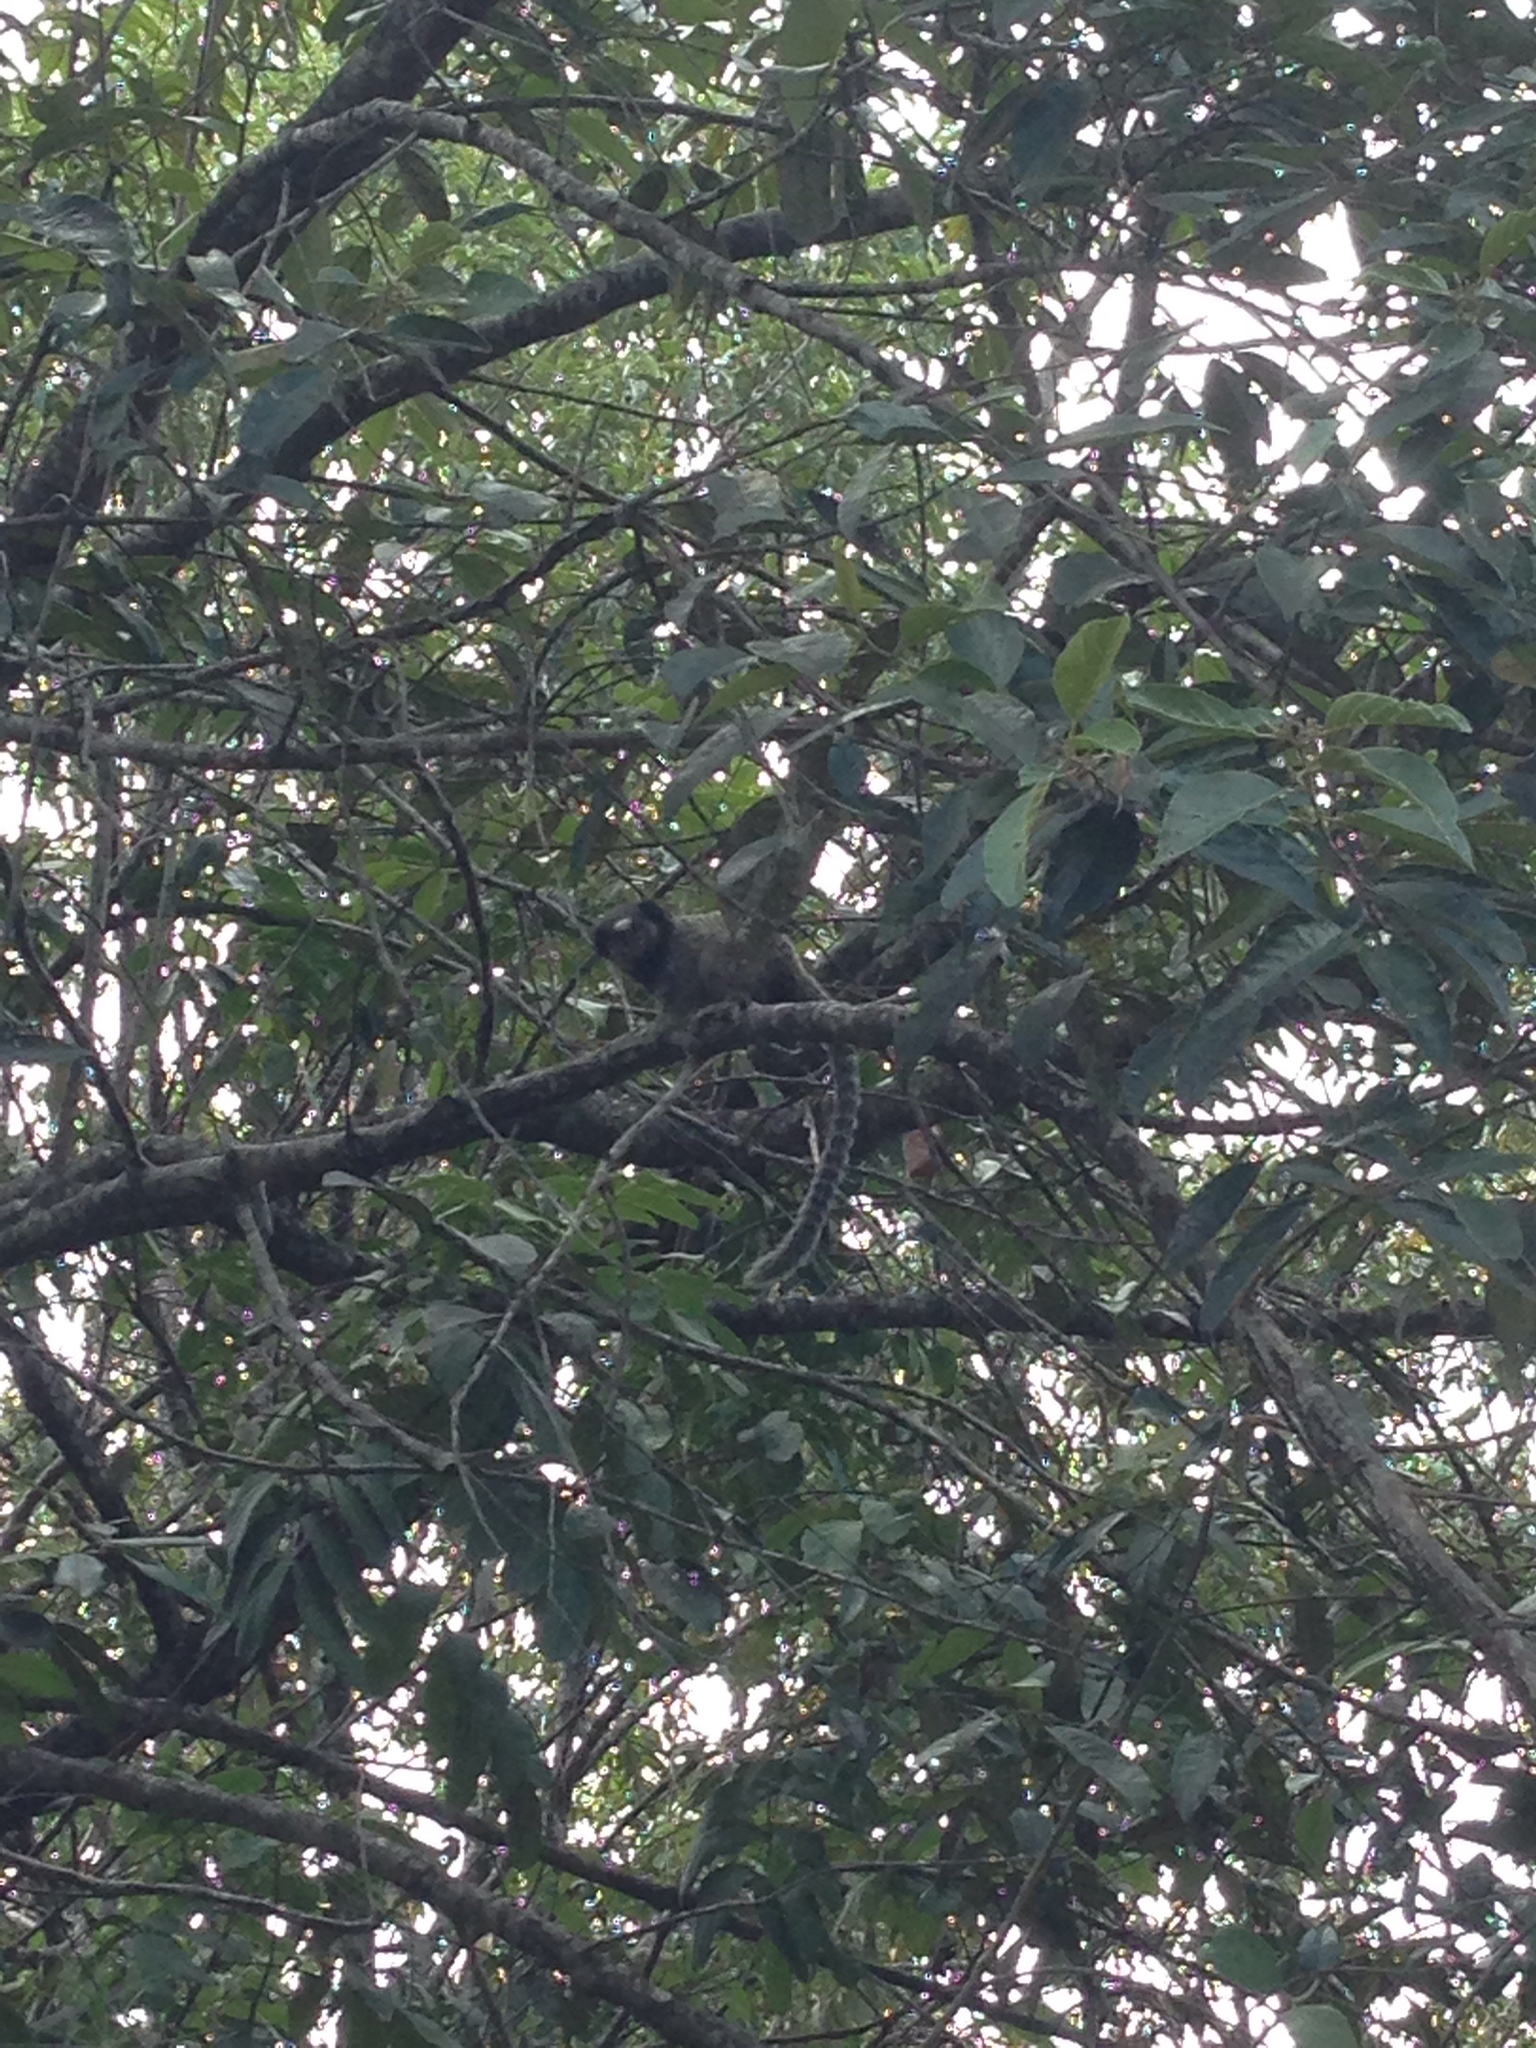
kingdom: Animalia
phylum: Chordata
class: Mammalia
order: Primates
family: Callitrichidae
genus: Callithrix
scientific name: Callithrix penicillata
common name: Black-tufted marmoset
